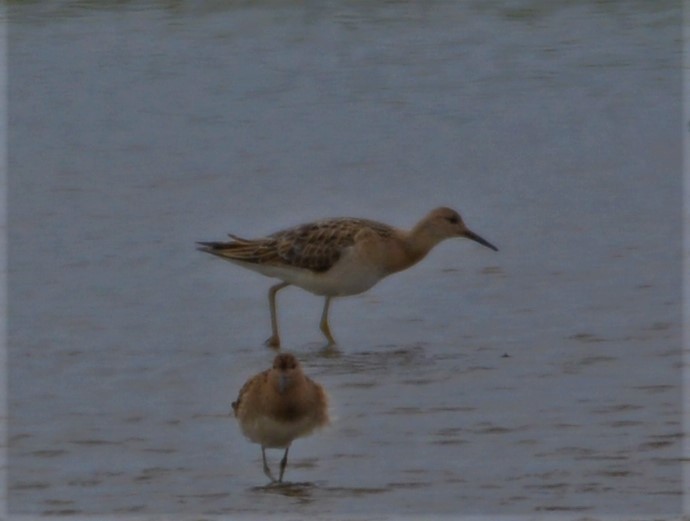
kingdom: Animalia
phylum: Chordata
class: Aves
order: Charadriiformes
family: Scolopacidae
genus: Calidris
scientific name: Calidris pugnax
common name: Ruff
